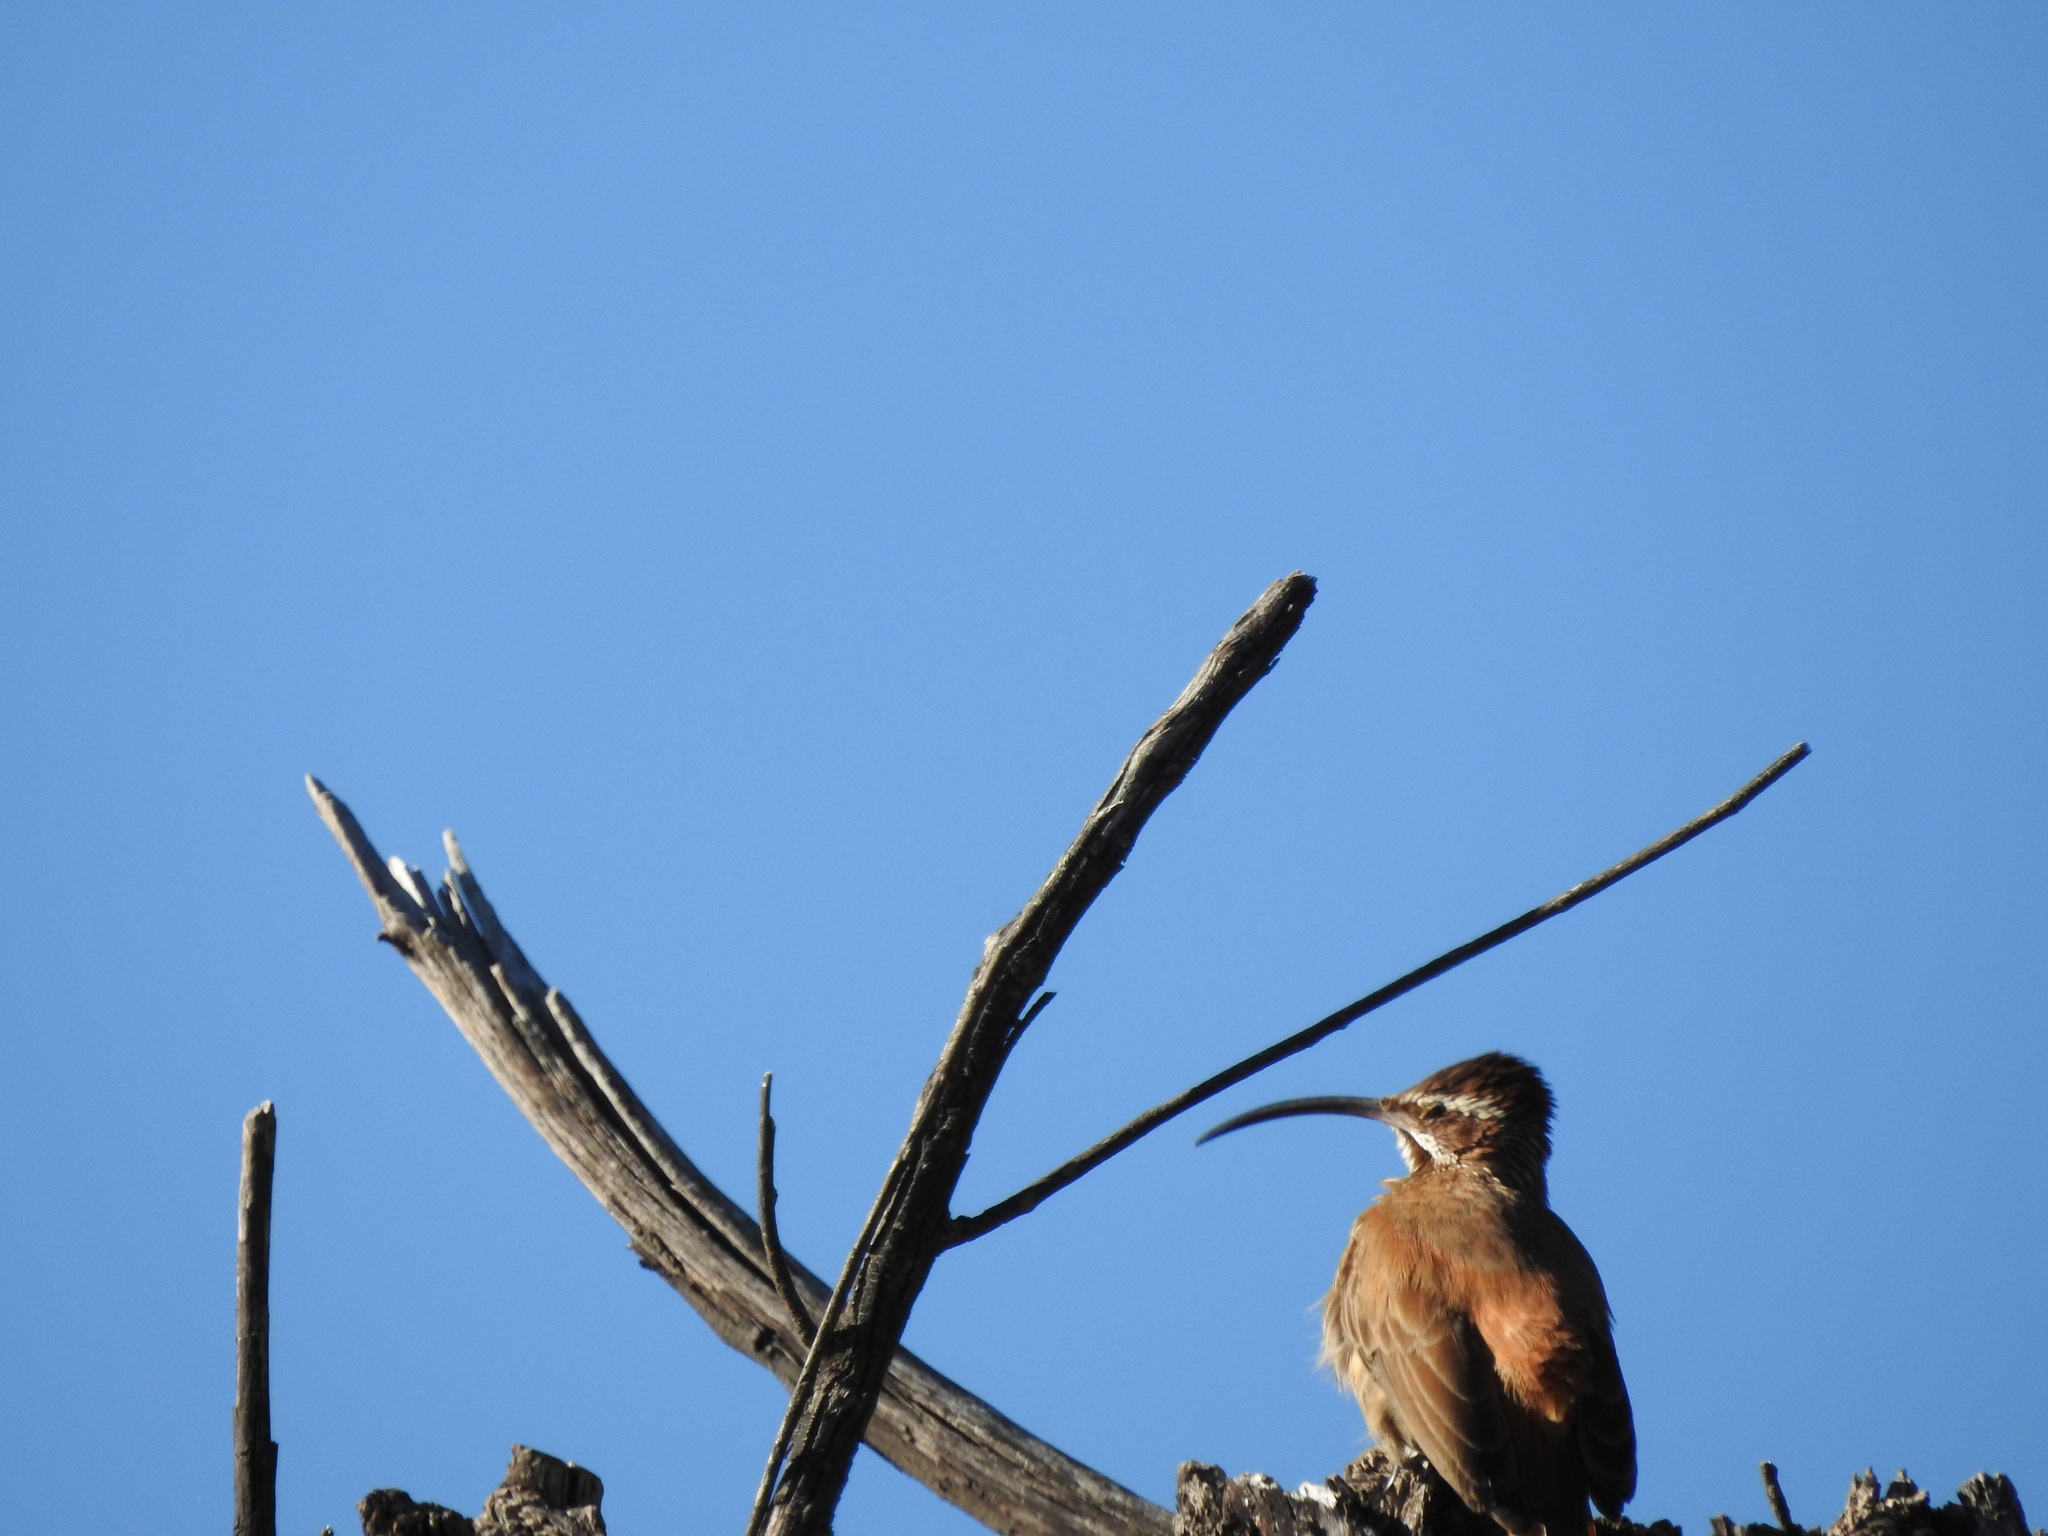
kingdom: Animalia
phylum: Chordata
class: Aves
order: Passeriformes
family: Furnariidae
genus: Drymornis
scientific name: Drymornis bridgesii
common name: Scimitar-billed woodcreeper
